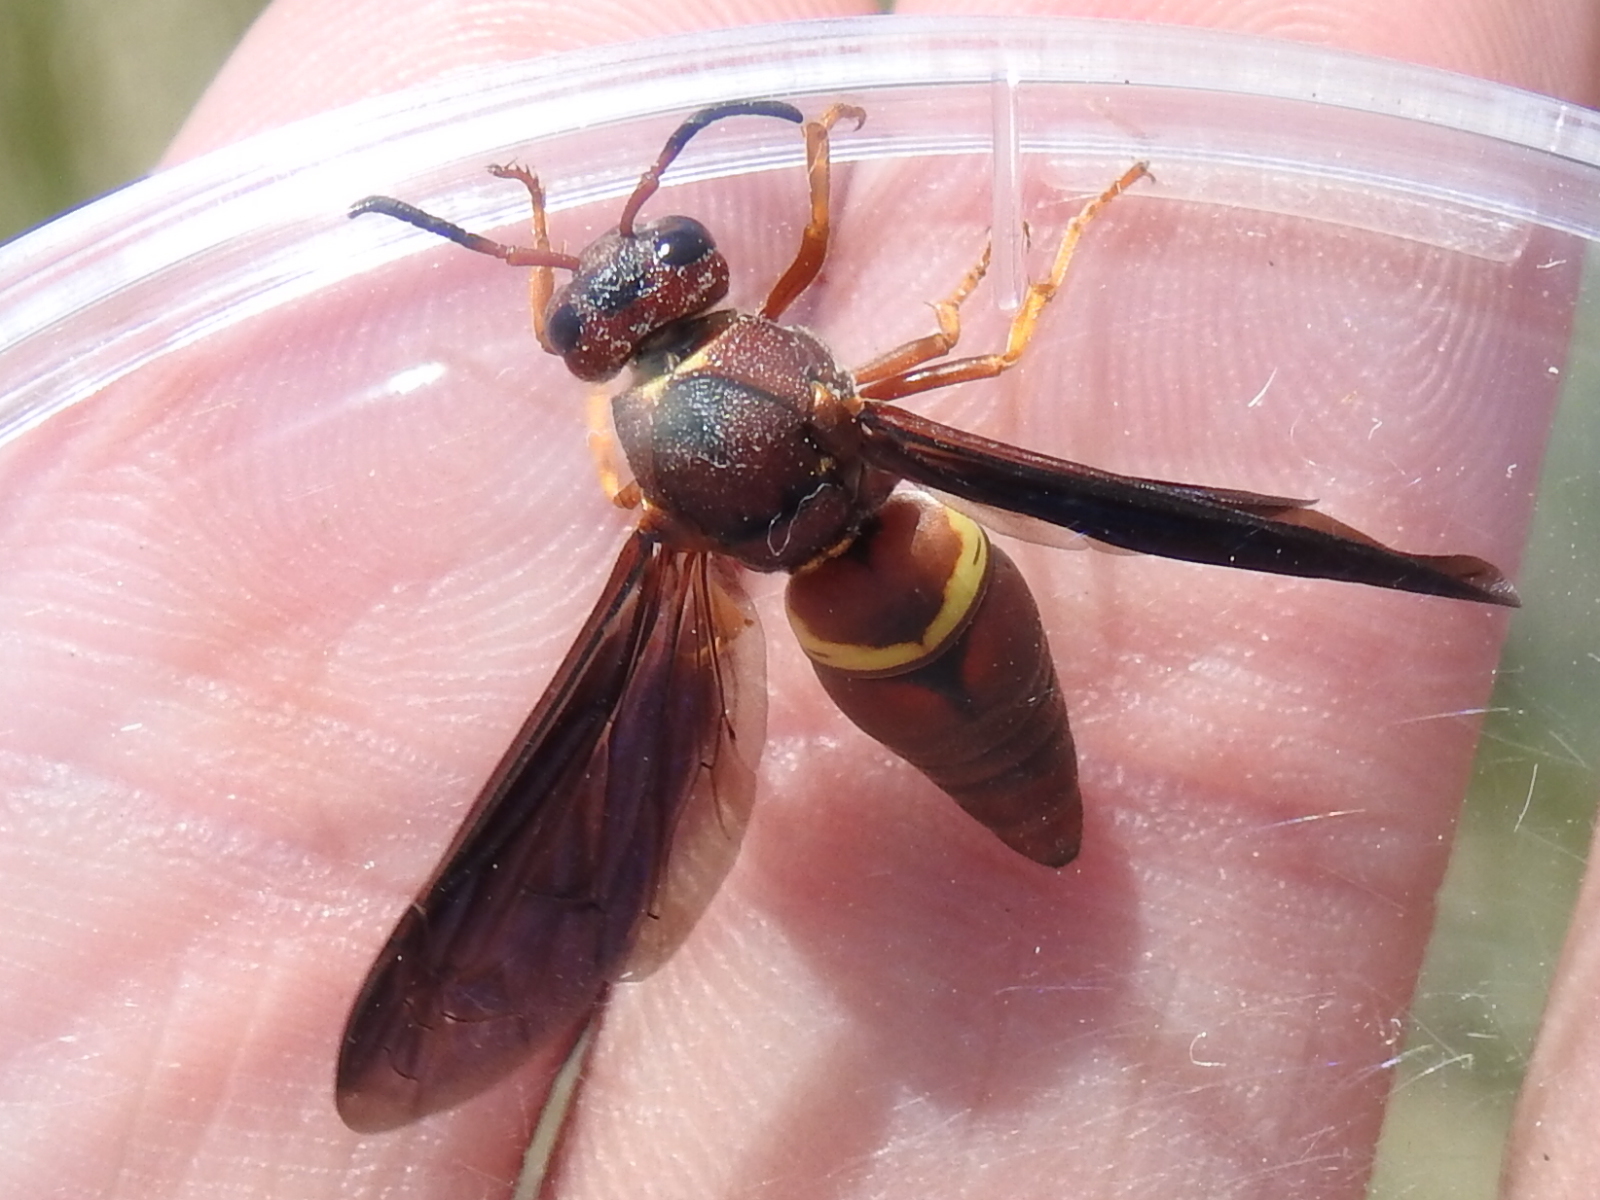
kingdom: Animalia
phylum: Arthropoda
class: Insecta
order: Hymenoptera
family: Eumenidae
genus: Euodynerus
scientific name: Euodynerus crypticus
